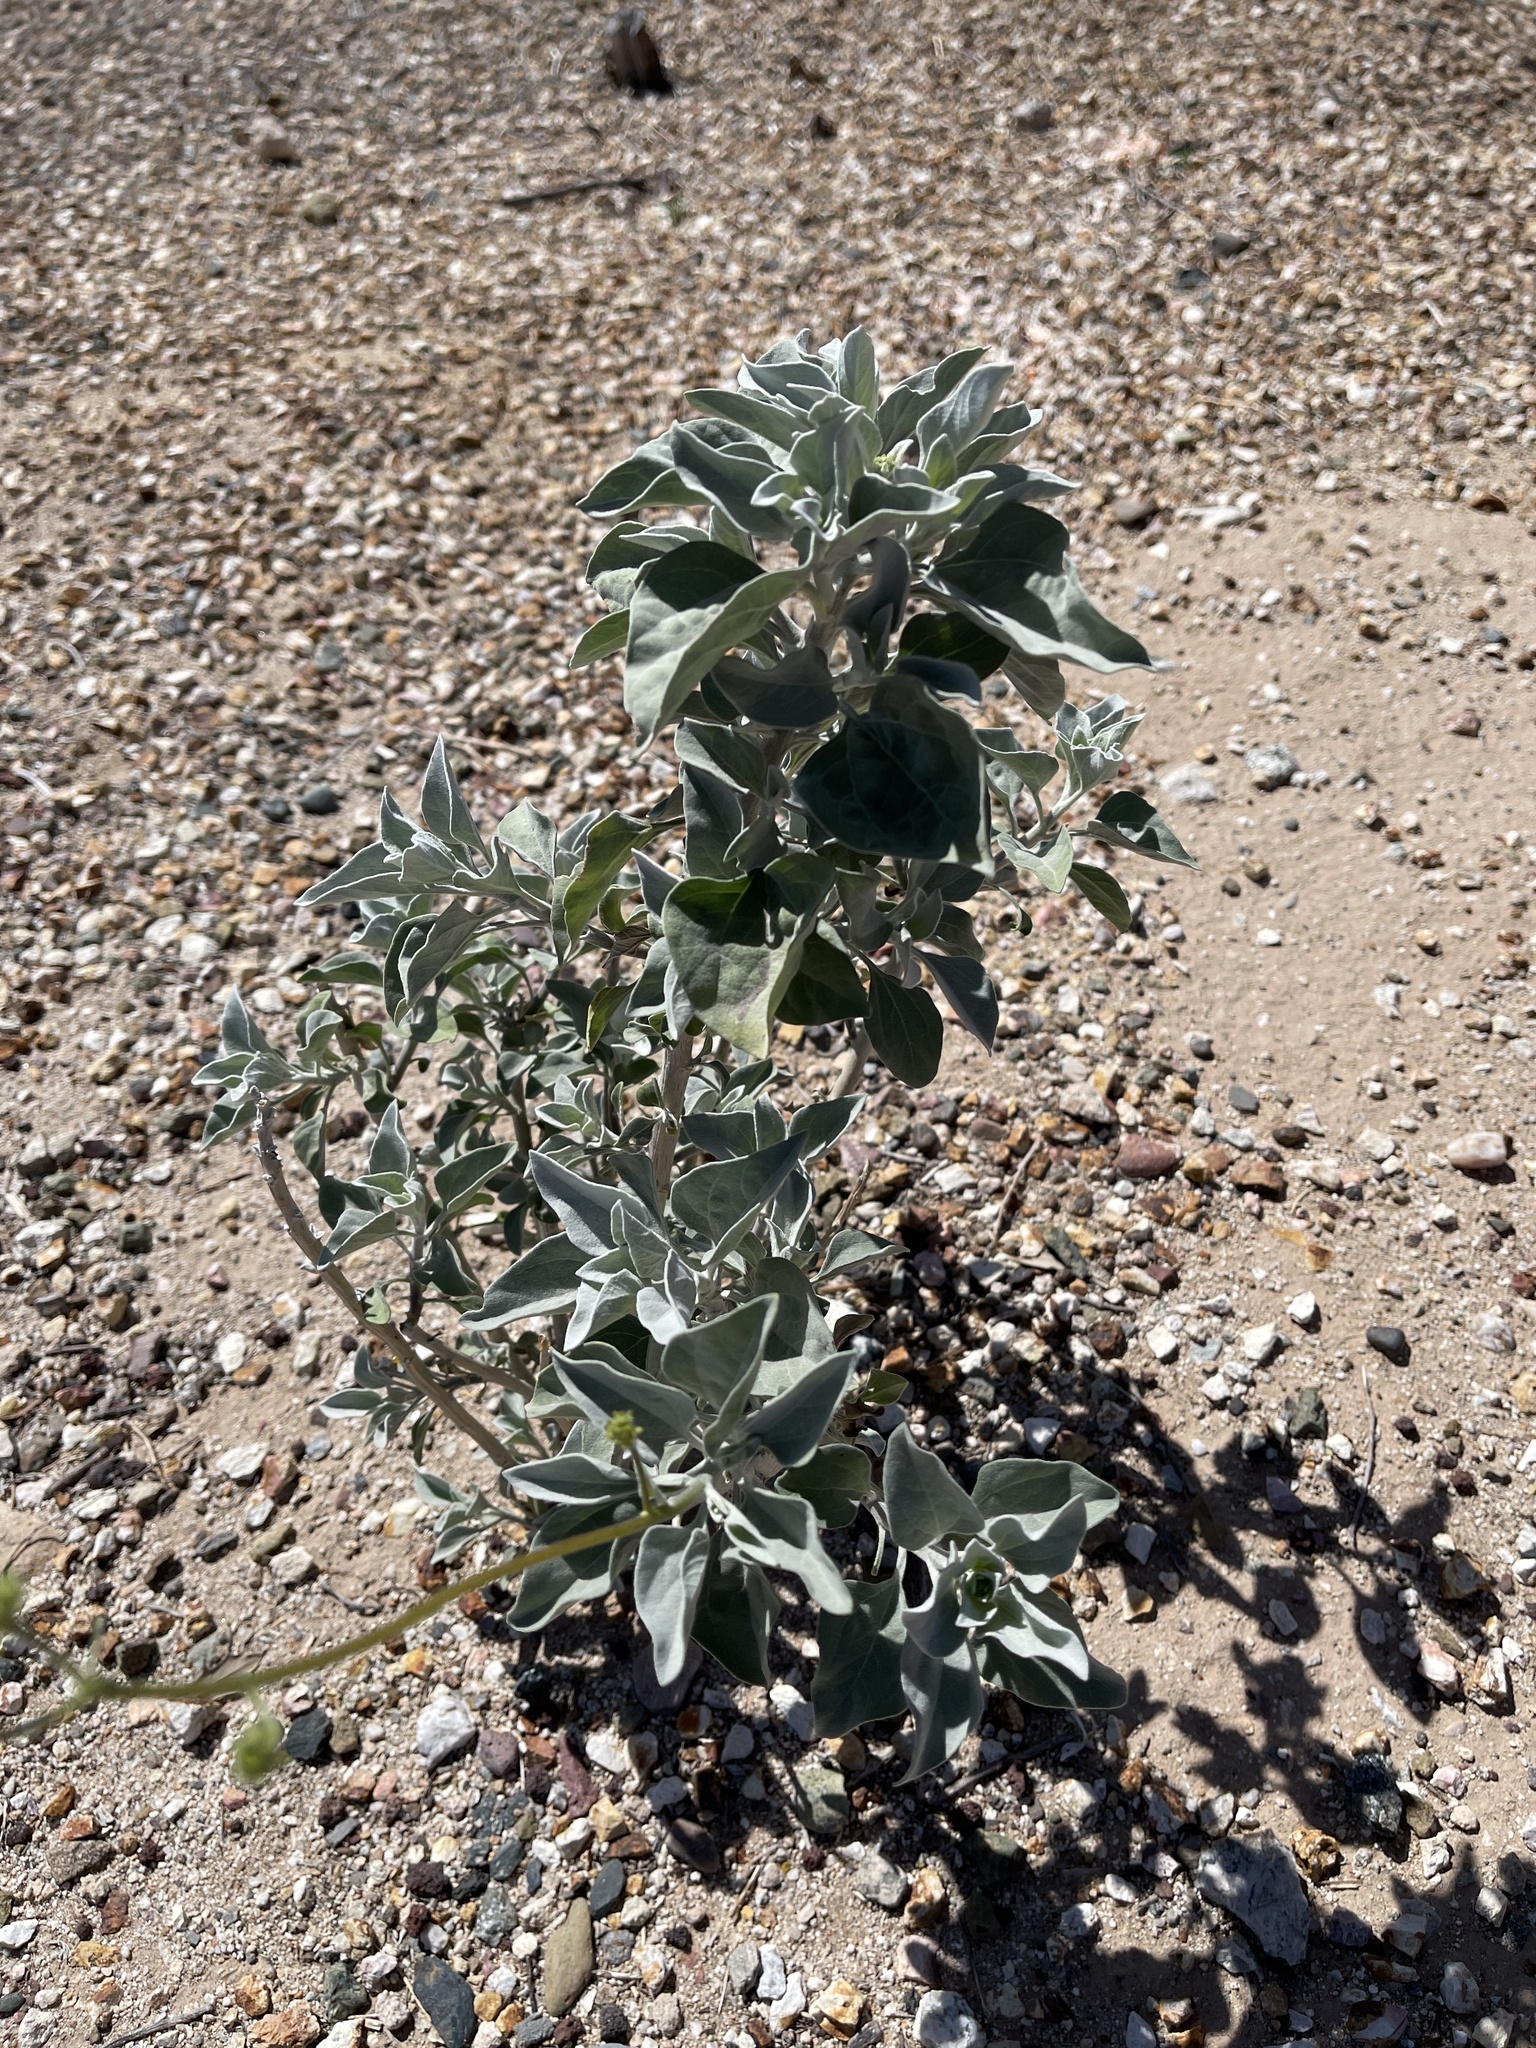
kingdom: Plantae
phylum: Tracheophyta
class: Magnoliopsida
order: Asterales
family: Asteraceae
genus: Encelia
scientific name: Encelia farinosa
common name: Brittlebush
